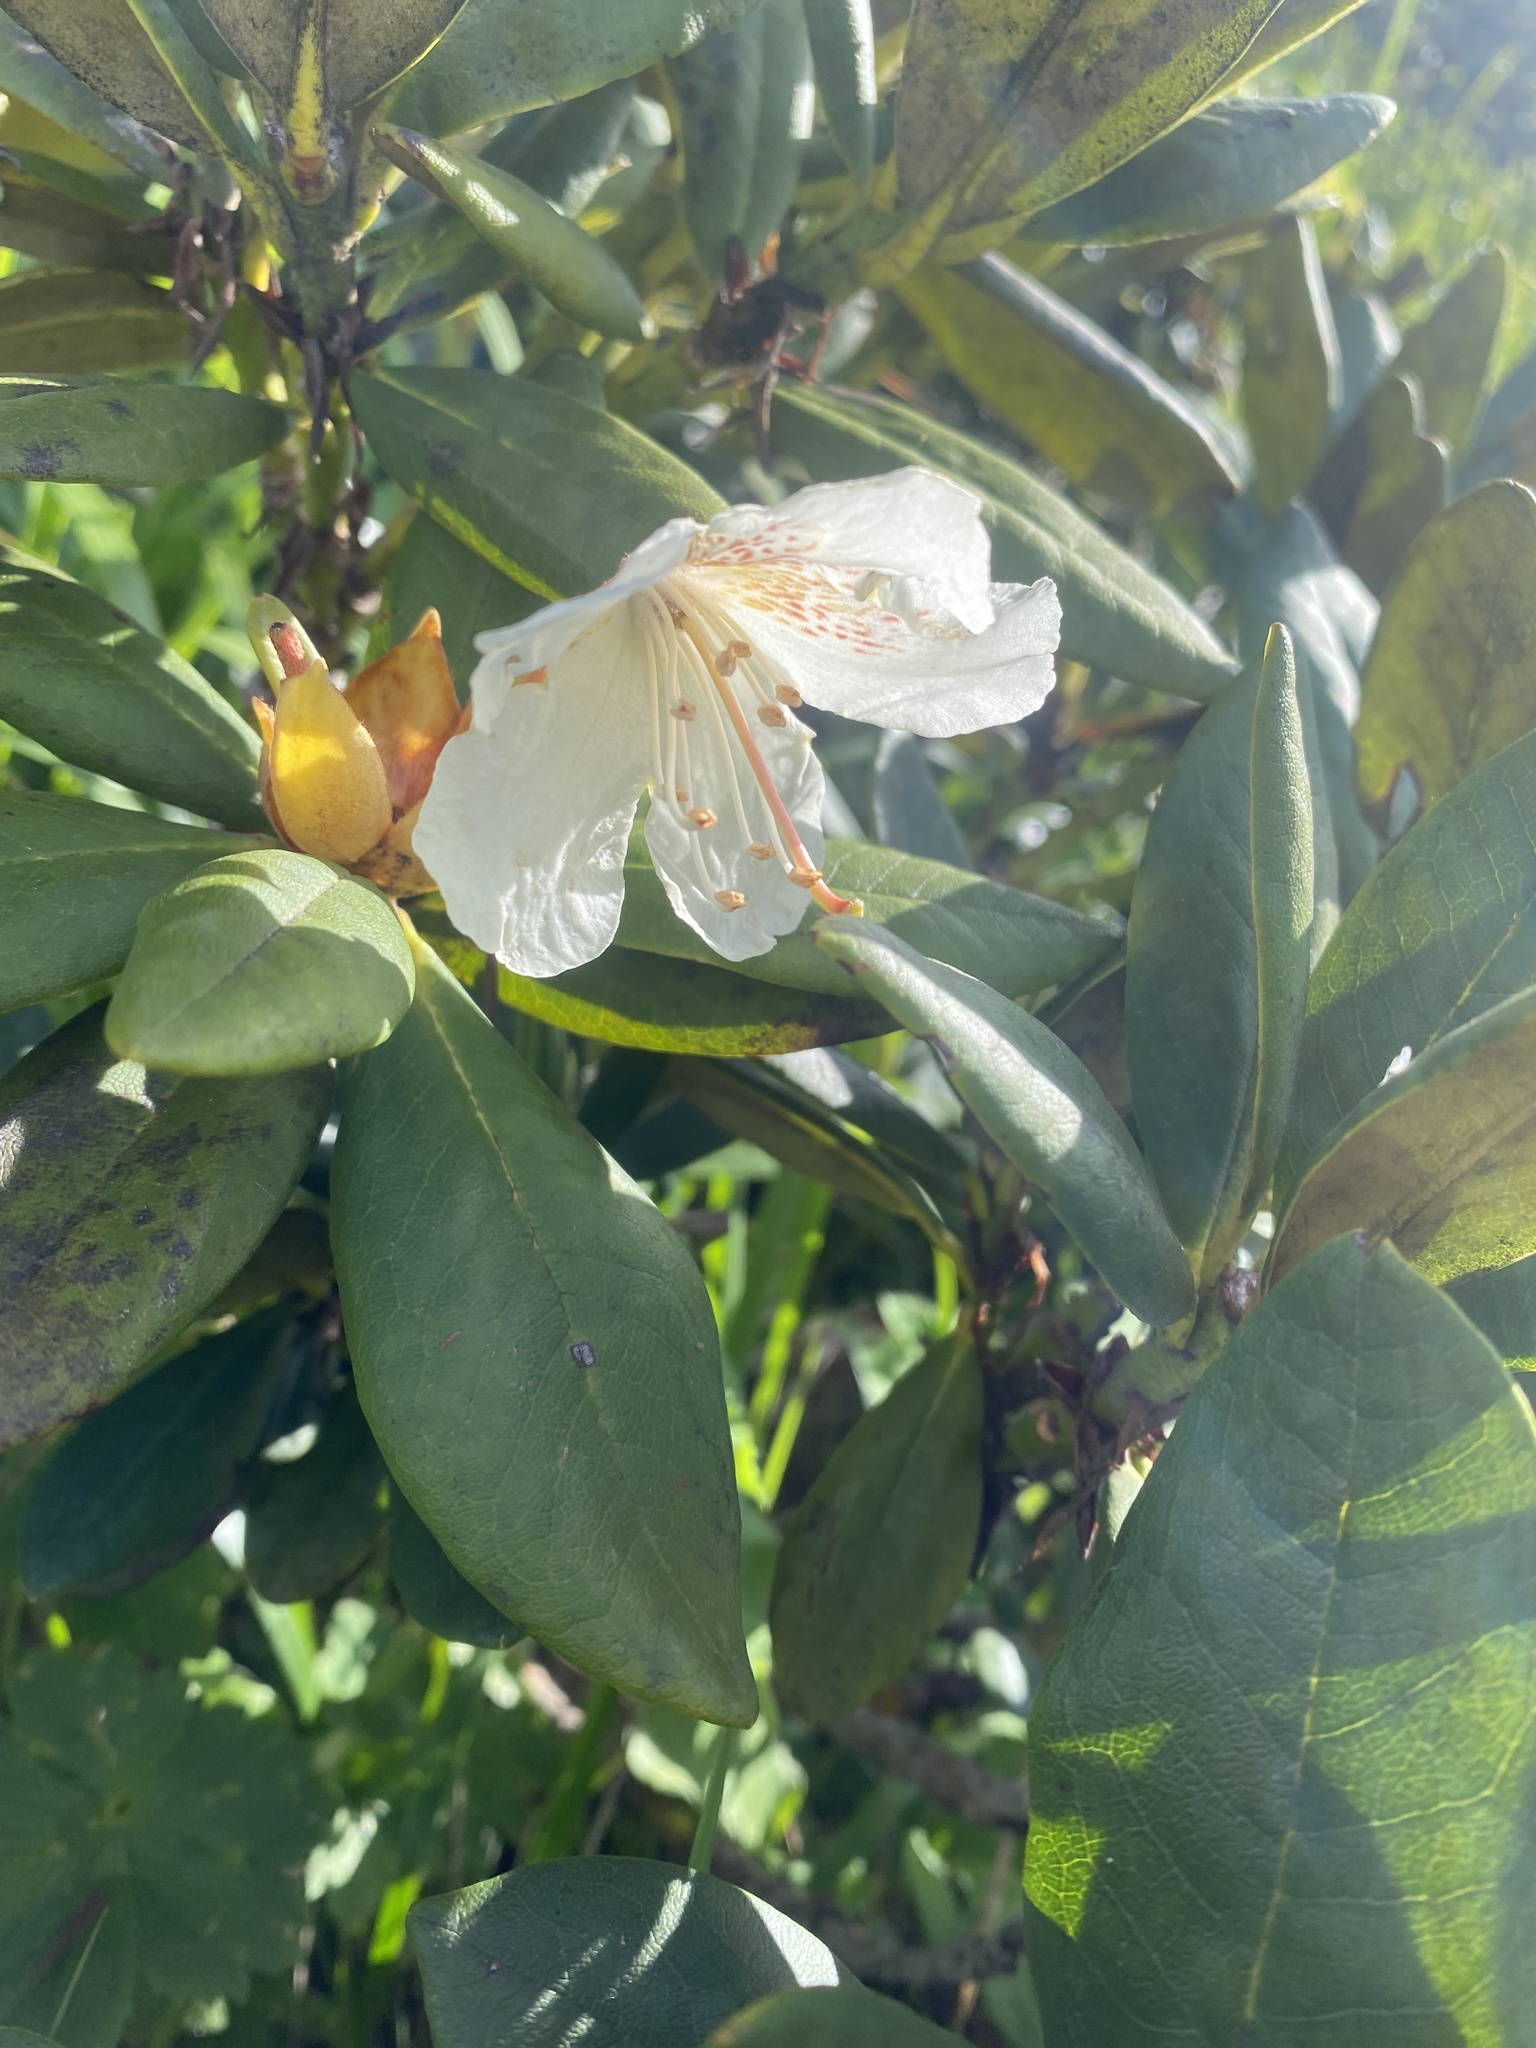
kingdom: Plantae
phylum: Tracheophyta
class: Magnoliopsida
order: Ericales
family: Ericaceae
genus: Rhododendron
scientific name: Rhododendron caucasicum
